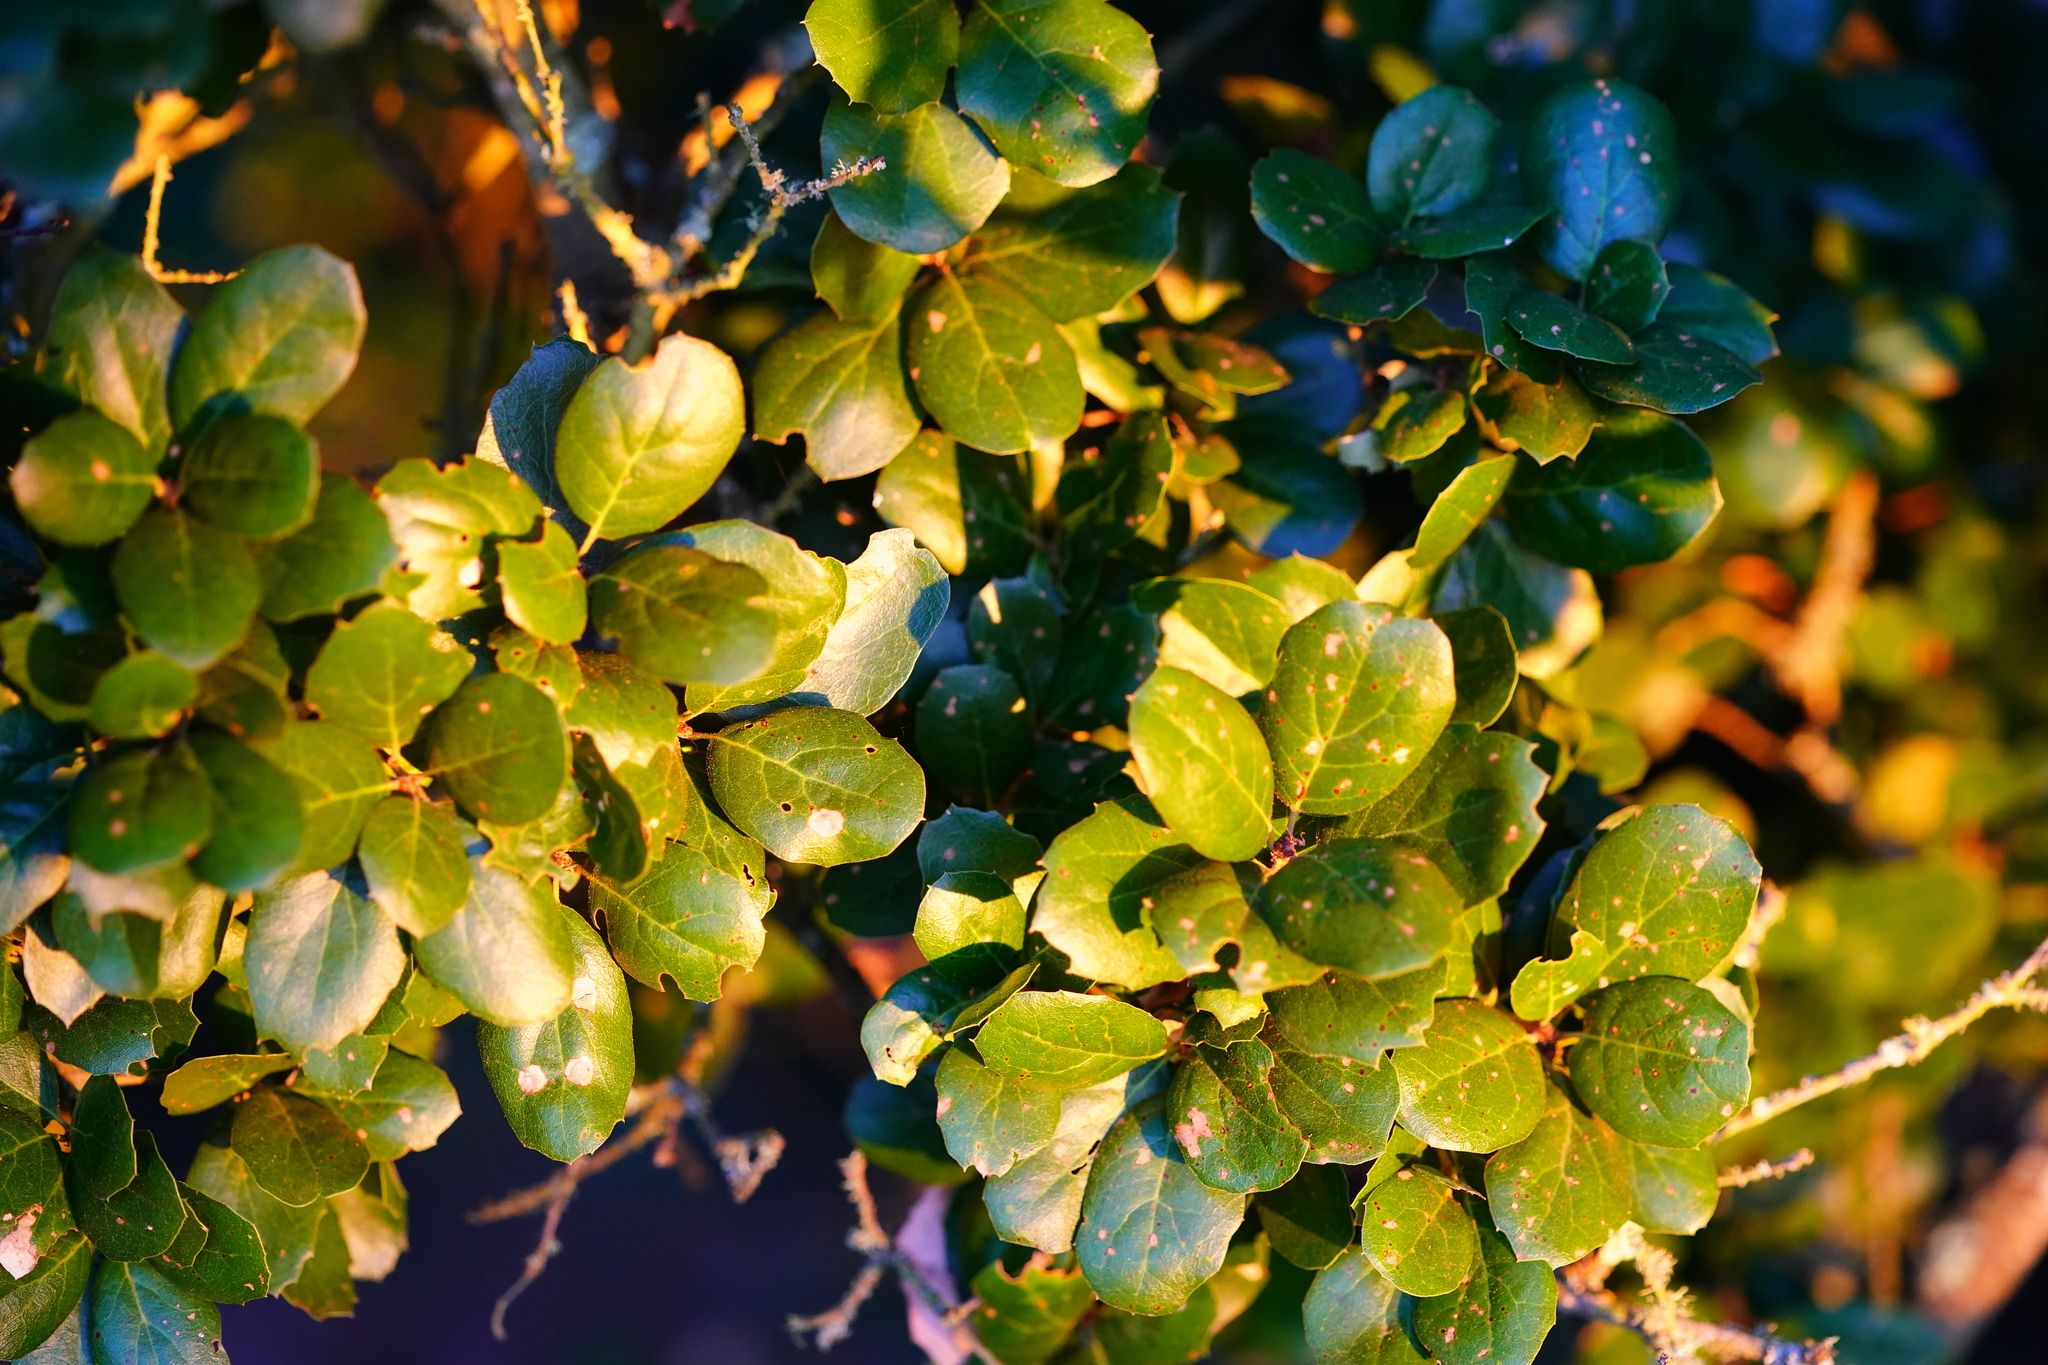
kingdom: Plantae
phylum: Tracheophyta
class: Magnoliopsida
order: Fagales
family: Fagaceae
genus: Quercus
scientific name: Quercus agrifolia
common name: California live oak
